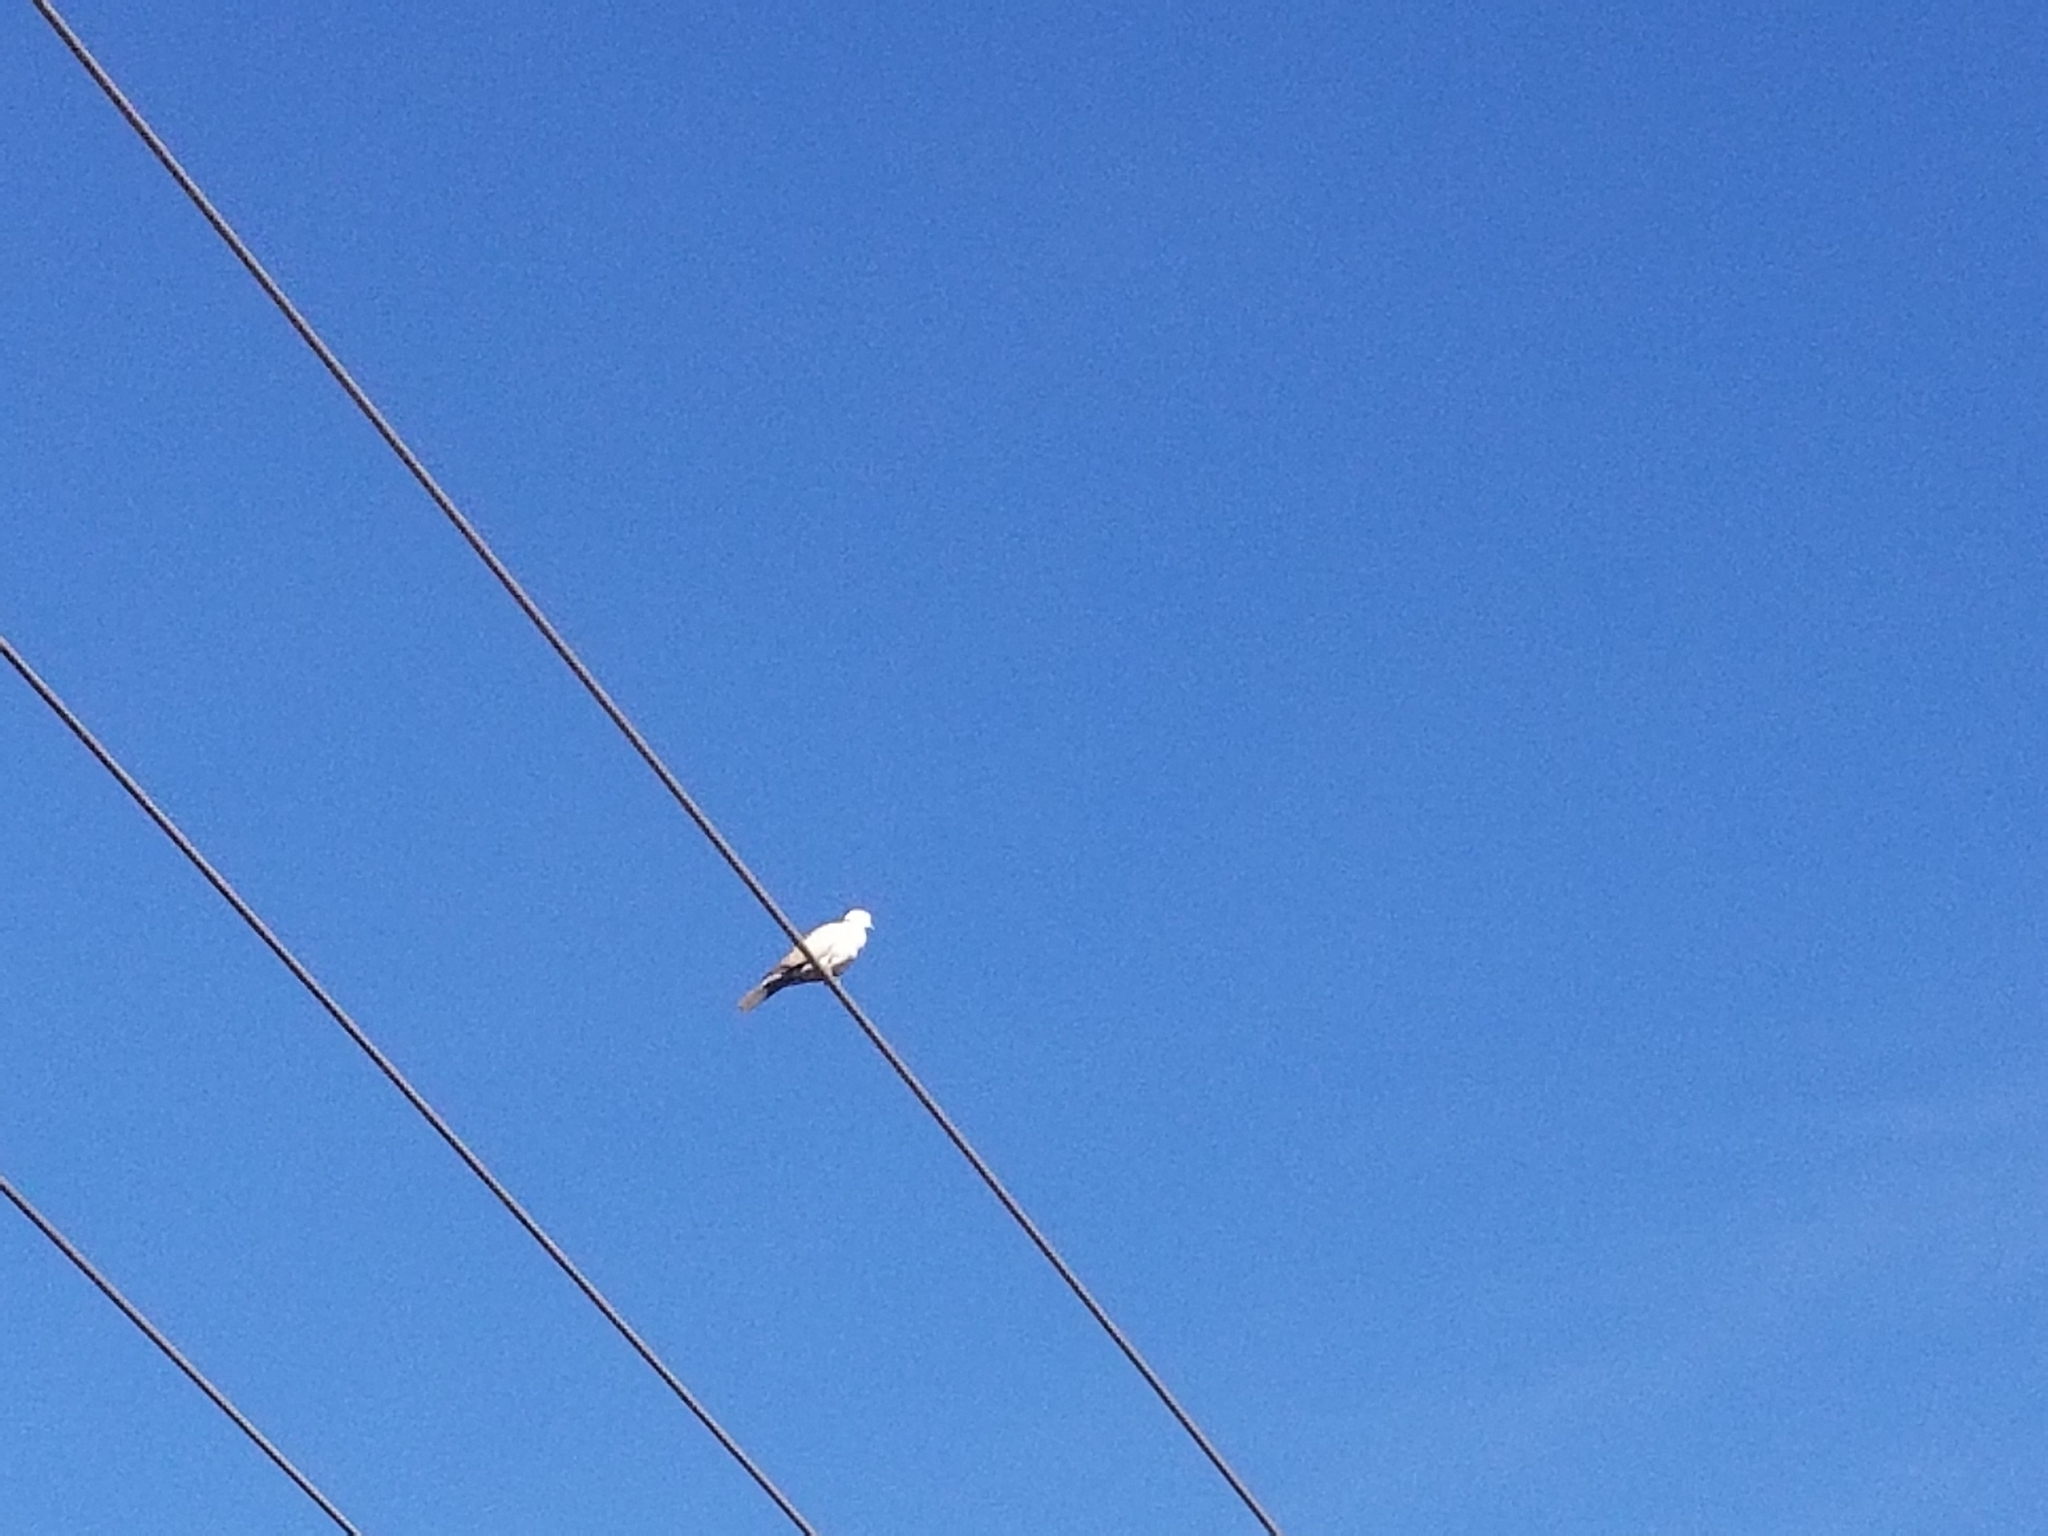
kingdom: Animalia
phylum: Chordata
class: Aves
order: Columbiformes
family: Columbidae
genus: Streptopelia
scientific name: Streptopelia decaocto
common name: Eurasian collared dove
